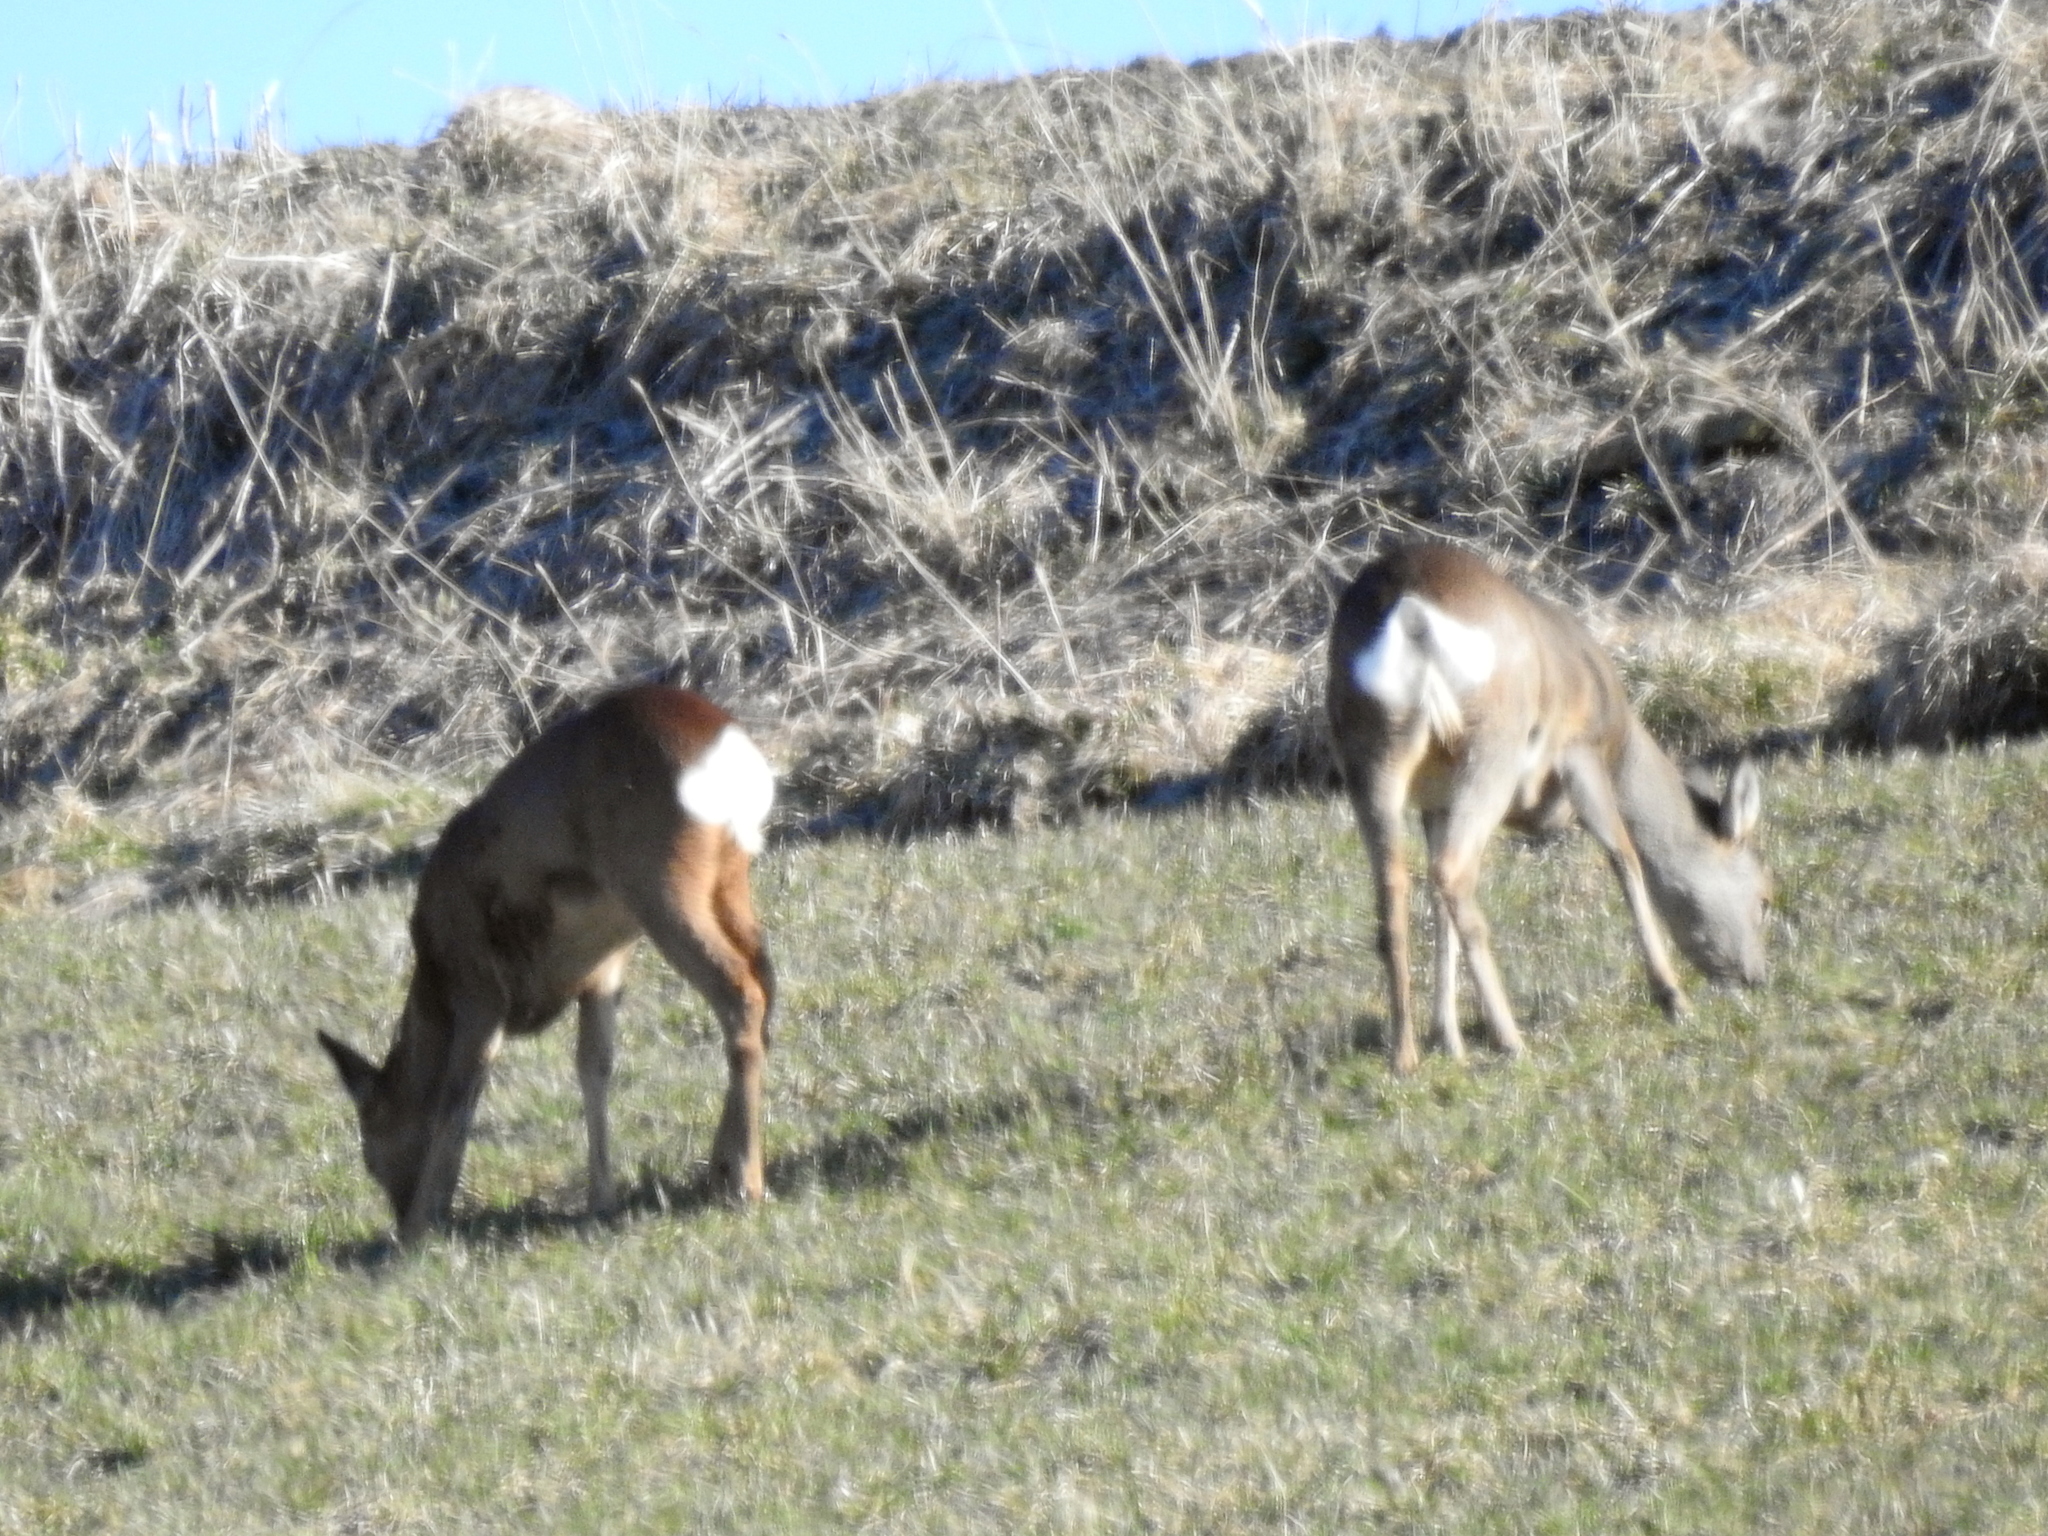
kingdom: Animalia
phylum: Chordata
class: Mammalia
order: Artiodactyla
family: Cervidae
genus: Capreolus
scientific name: Capreolus capreolus
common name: Western roe deer
